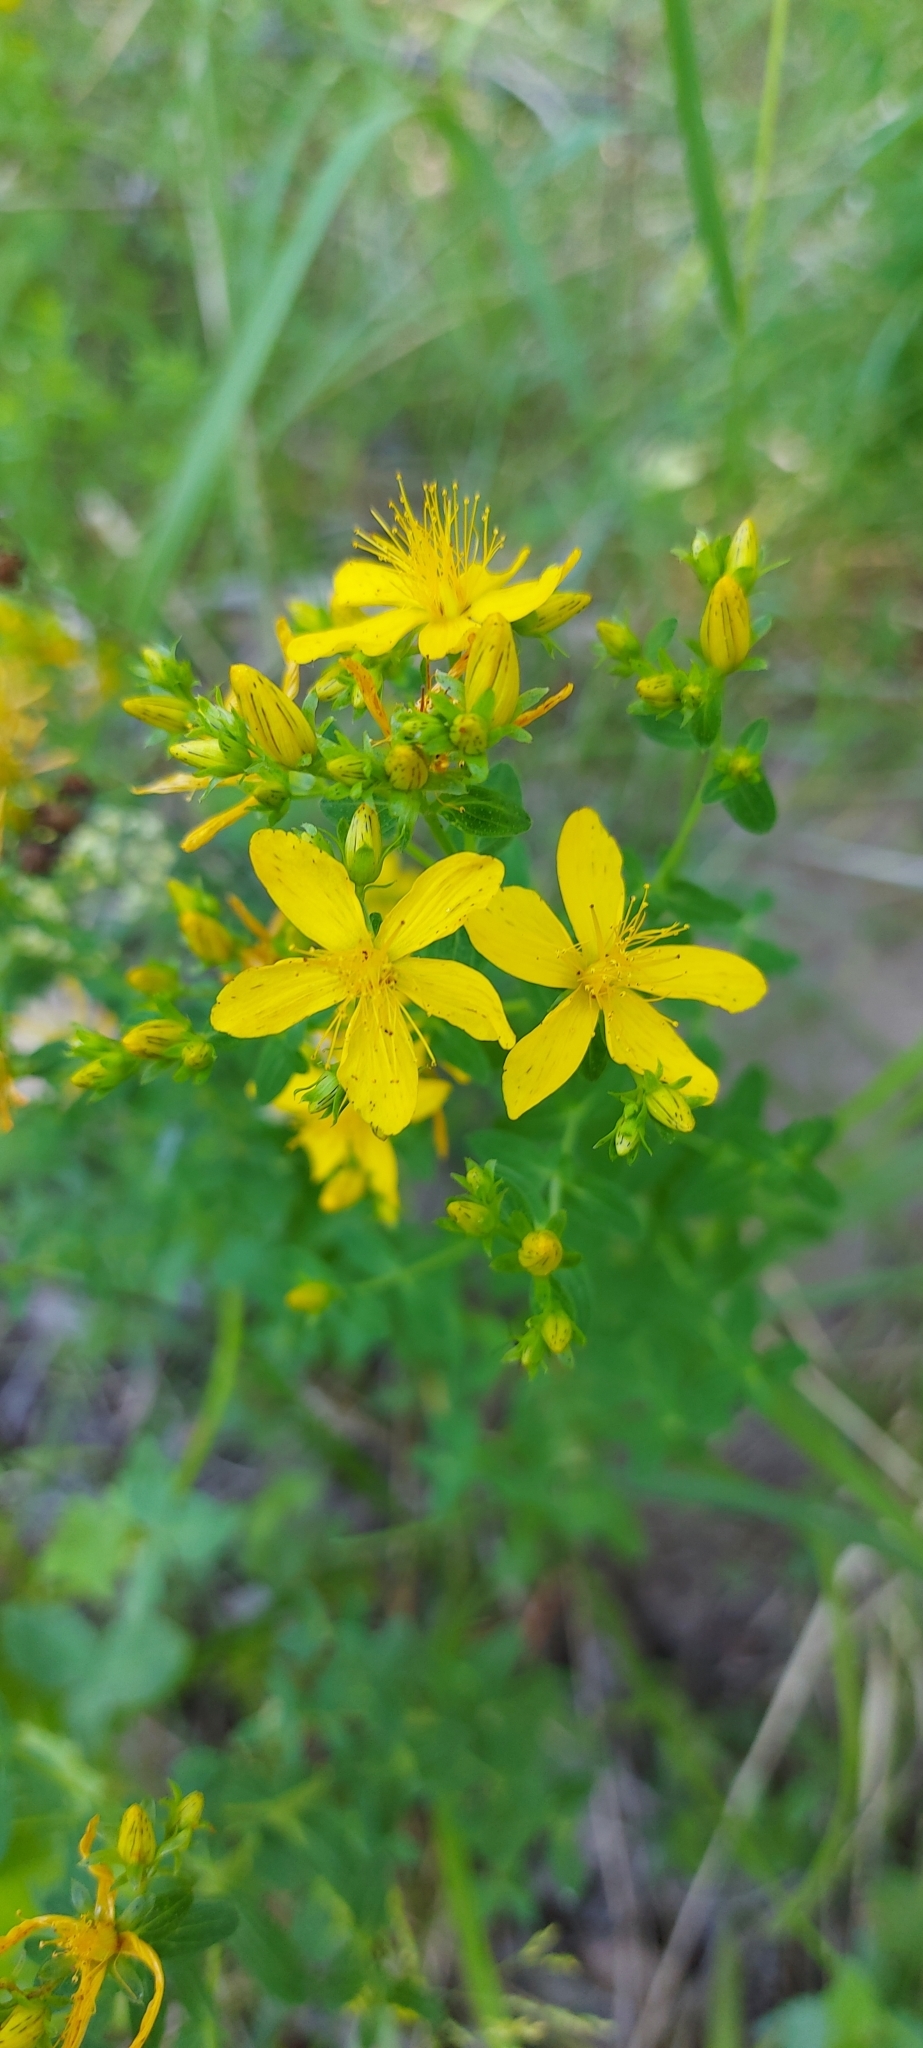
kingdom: Plantae
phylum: Tracheophyta
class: Magnoliopsida
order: Malpighiales
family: Hypericaceae
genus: Hypericum
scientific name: Hypericum perforatum
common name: Common st. johnswort
